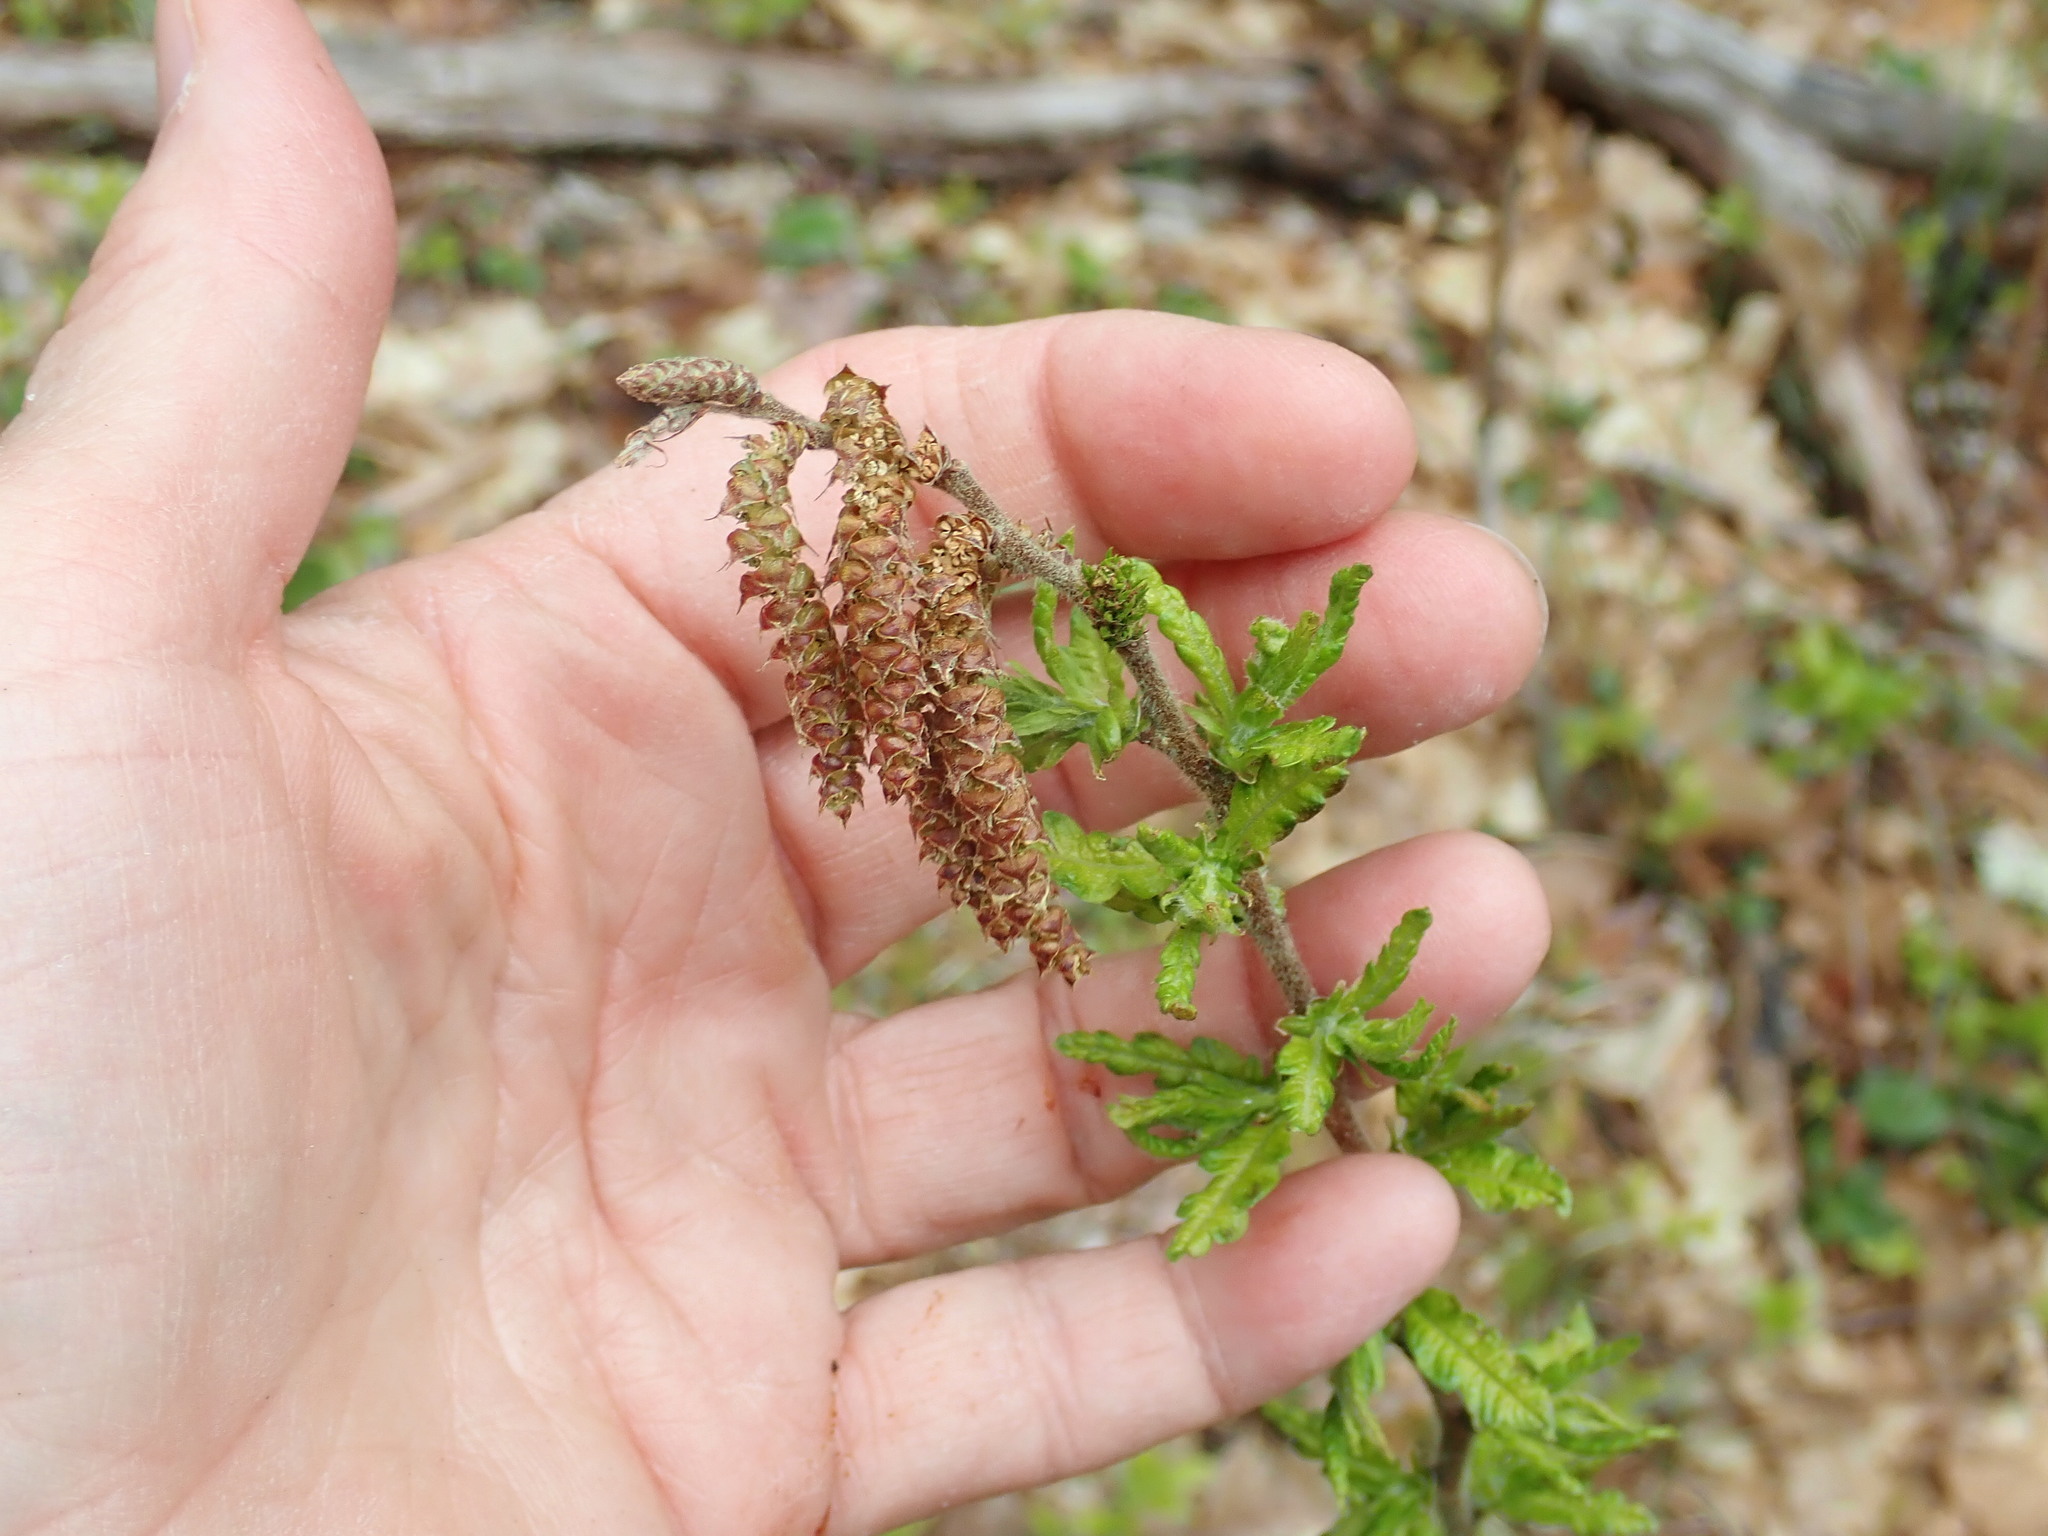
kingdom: Plantae
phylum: Tracheophyta
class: Magnoliopsida
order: Fagales
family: Myricaceae
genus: Comptonia
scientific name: Comptonia peregrina
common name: Sweet-fern
